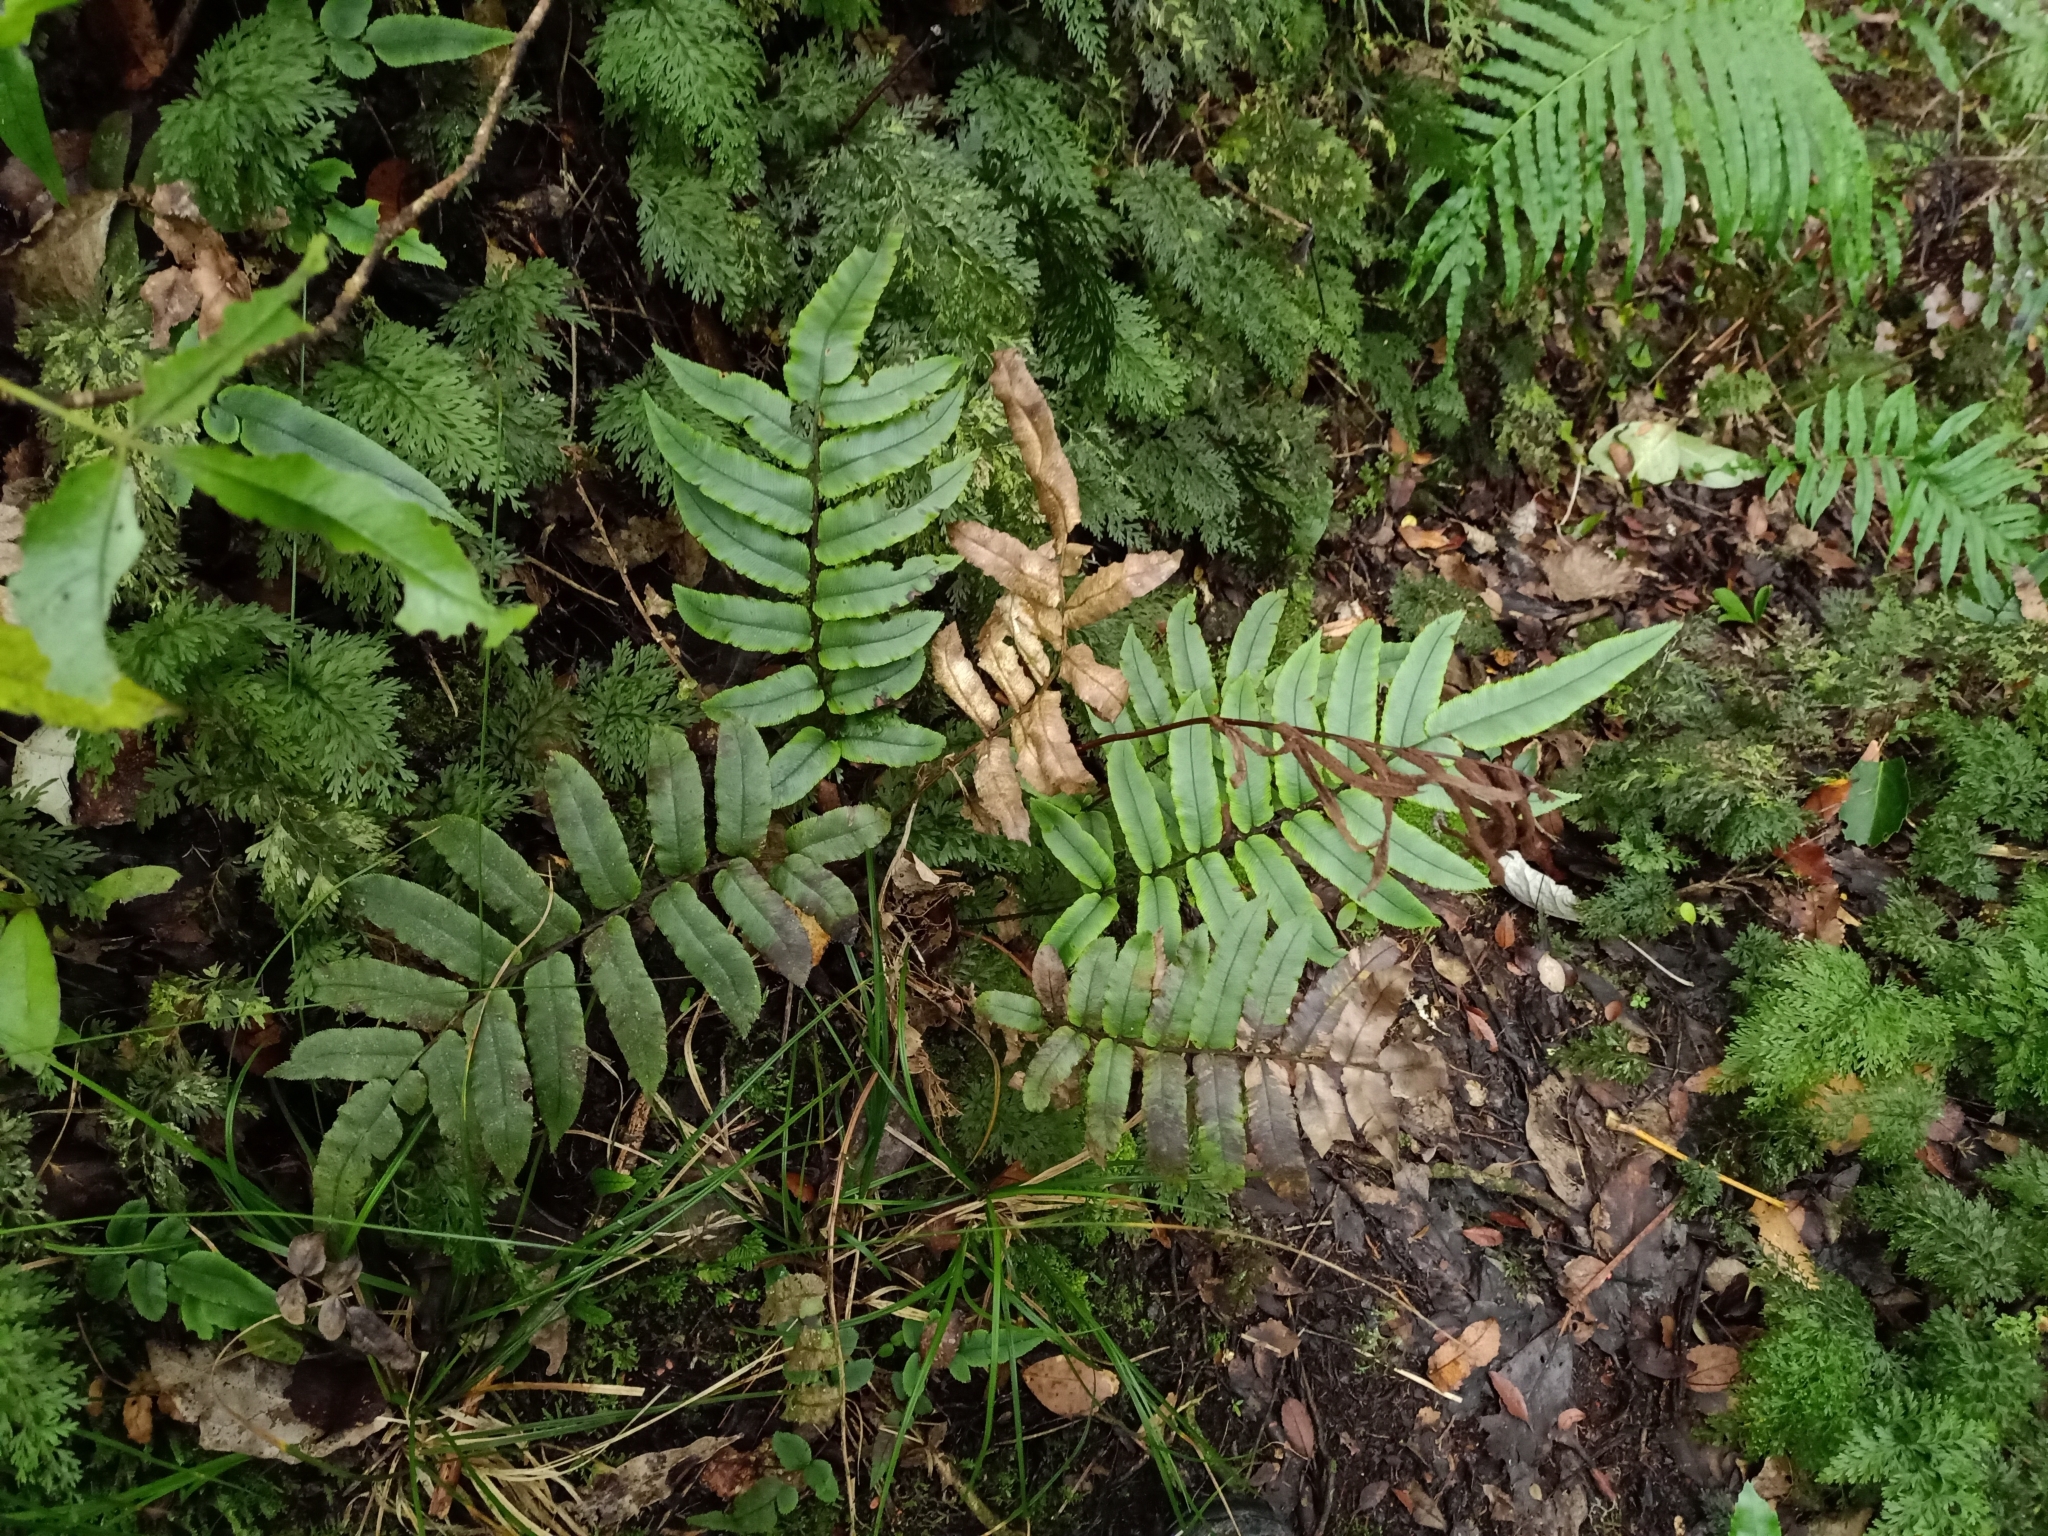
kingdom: Plantae
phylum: Tracheophyta
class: Polypodiopsida
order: Polypodiales
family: Blechnaceae
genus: Parablechnum
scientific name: Parablechnum procerum
